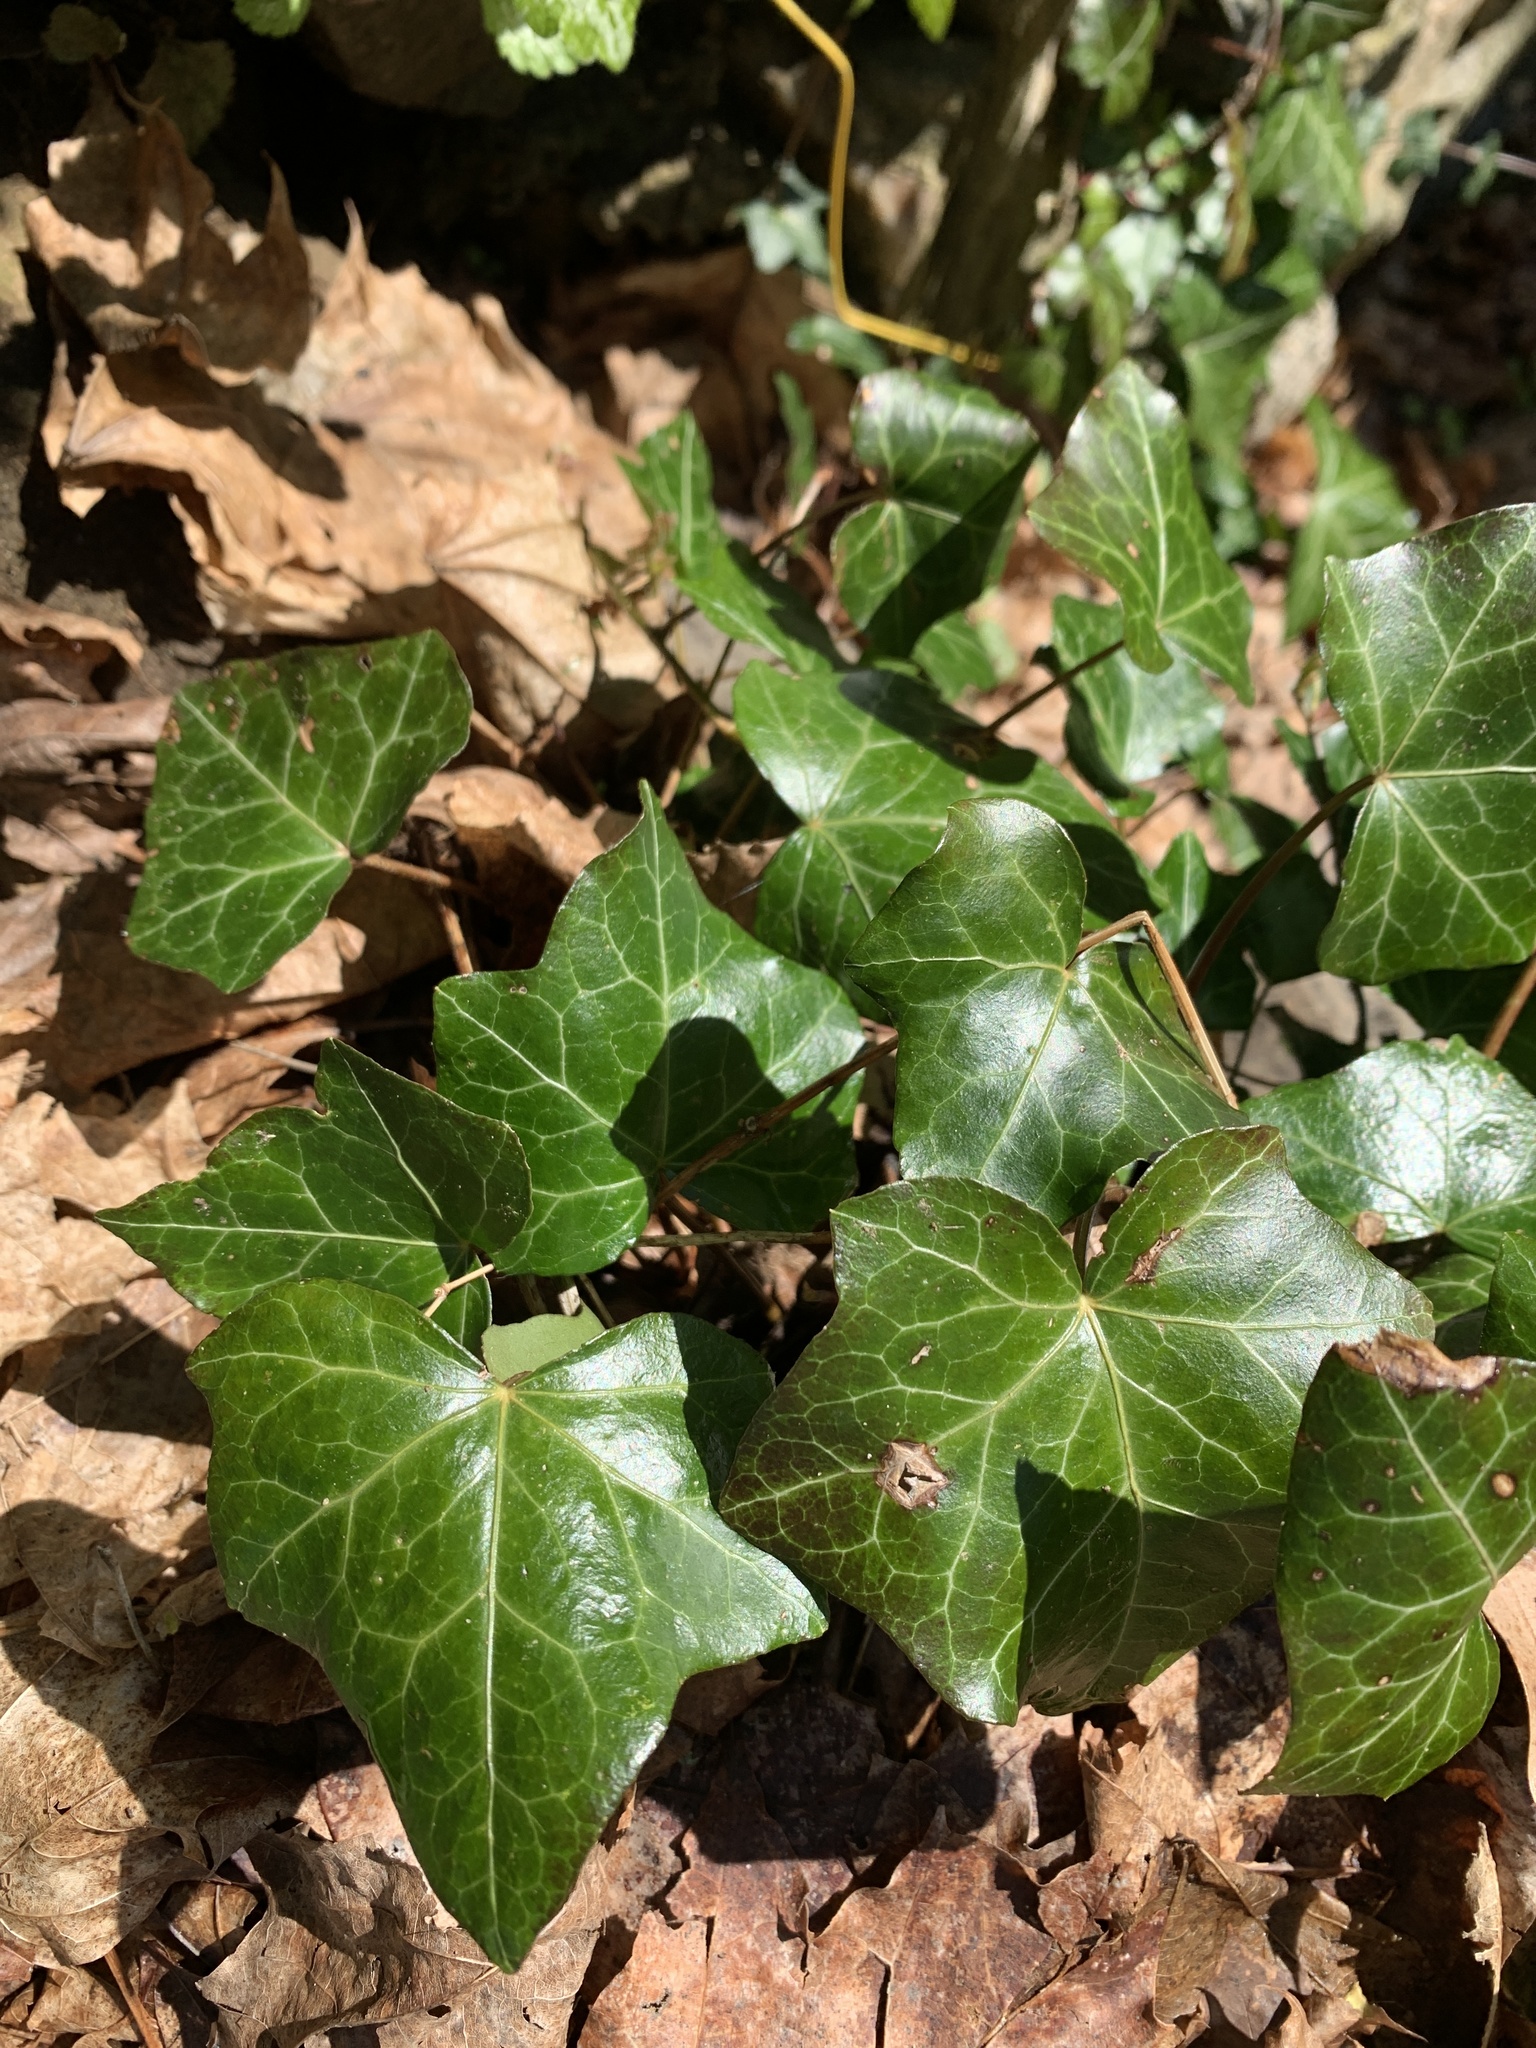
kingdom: Plantae
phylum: Tracheophyta
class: Magnoliopsida
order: Apiales
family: Araliaceae
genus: Hedera
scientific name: Hedera helix
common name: Ivy
